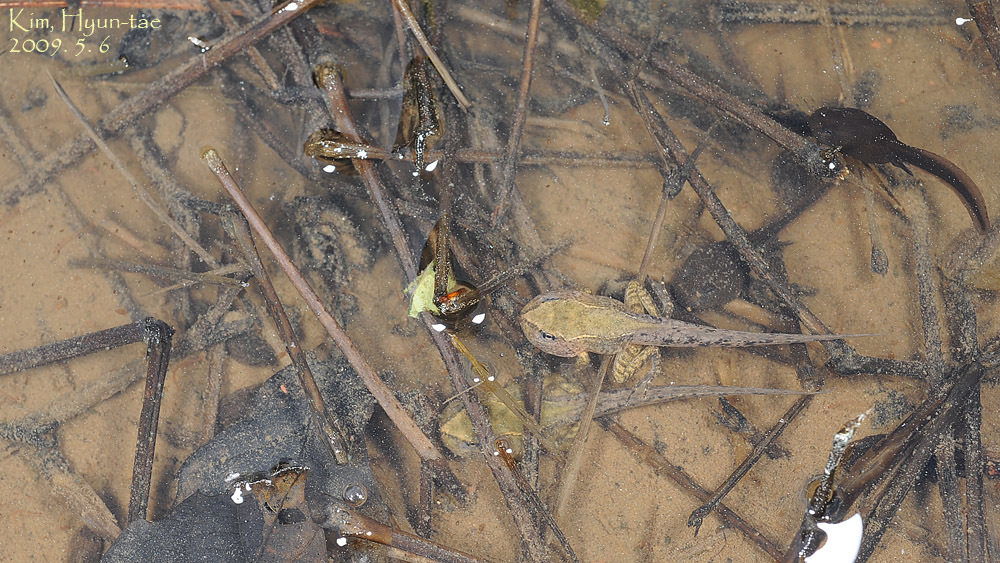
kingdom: Animalia
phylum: Chordata
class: Amphibia
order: Anura
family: Ranidae
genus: Rana
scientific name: Rana uenoi
